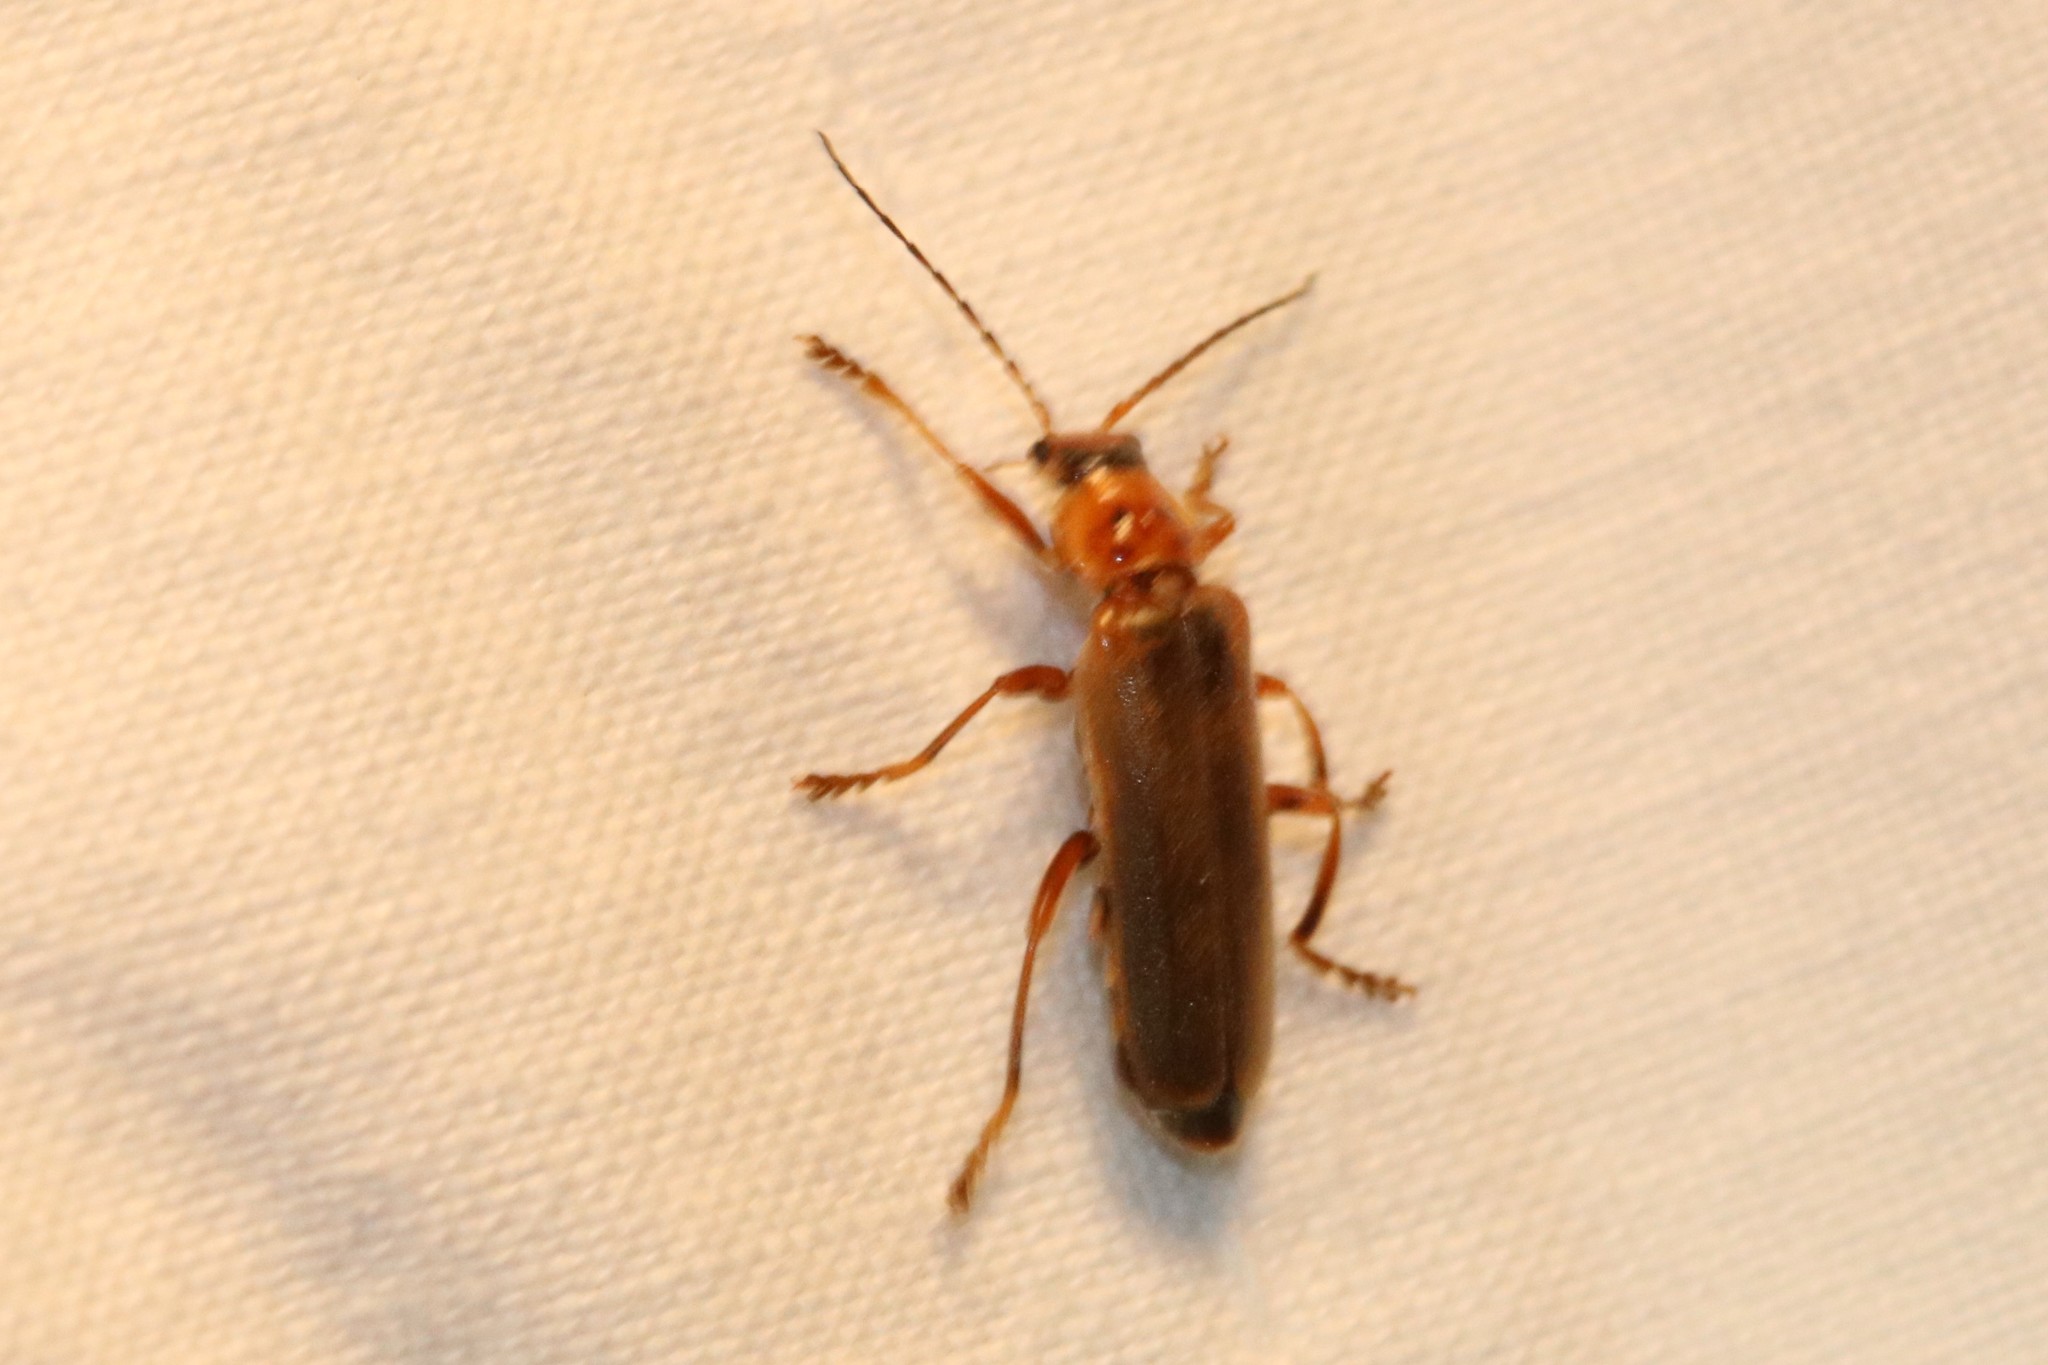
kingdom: Animalia
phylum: Arthropoda
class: Insecta
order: Coleoptera
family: Cantharidae
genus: Cantharis
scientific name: Cantharis rufa
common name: Red-spotted soldier beetle
